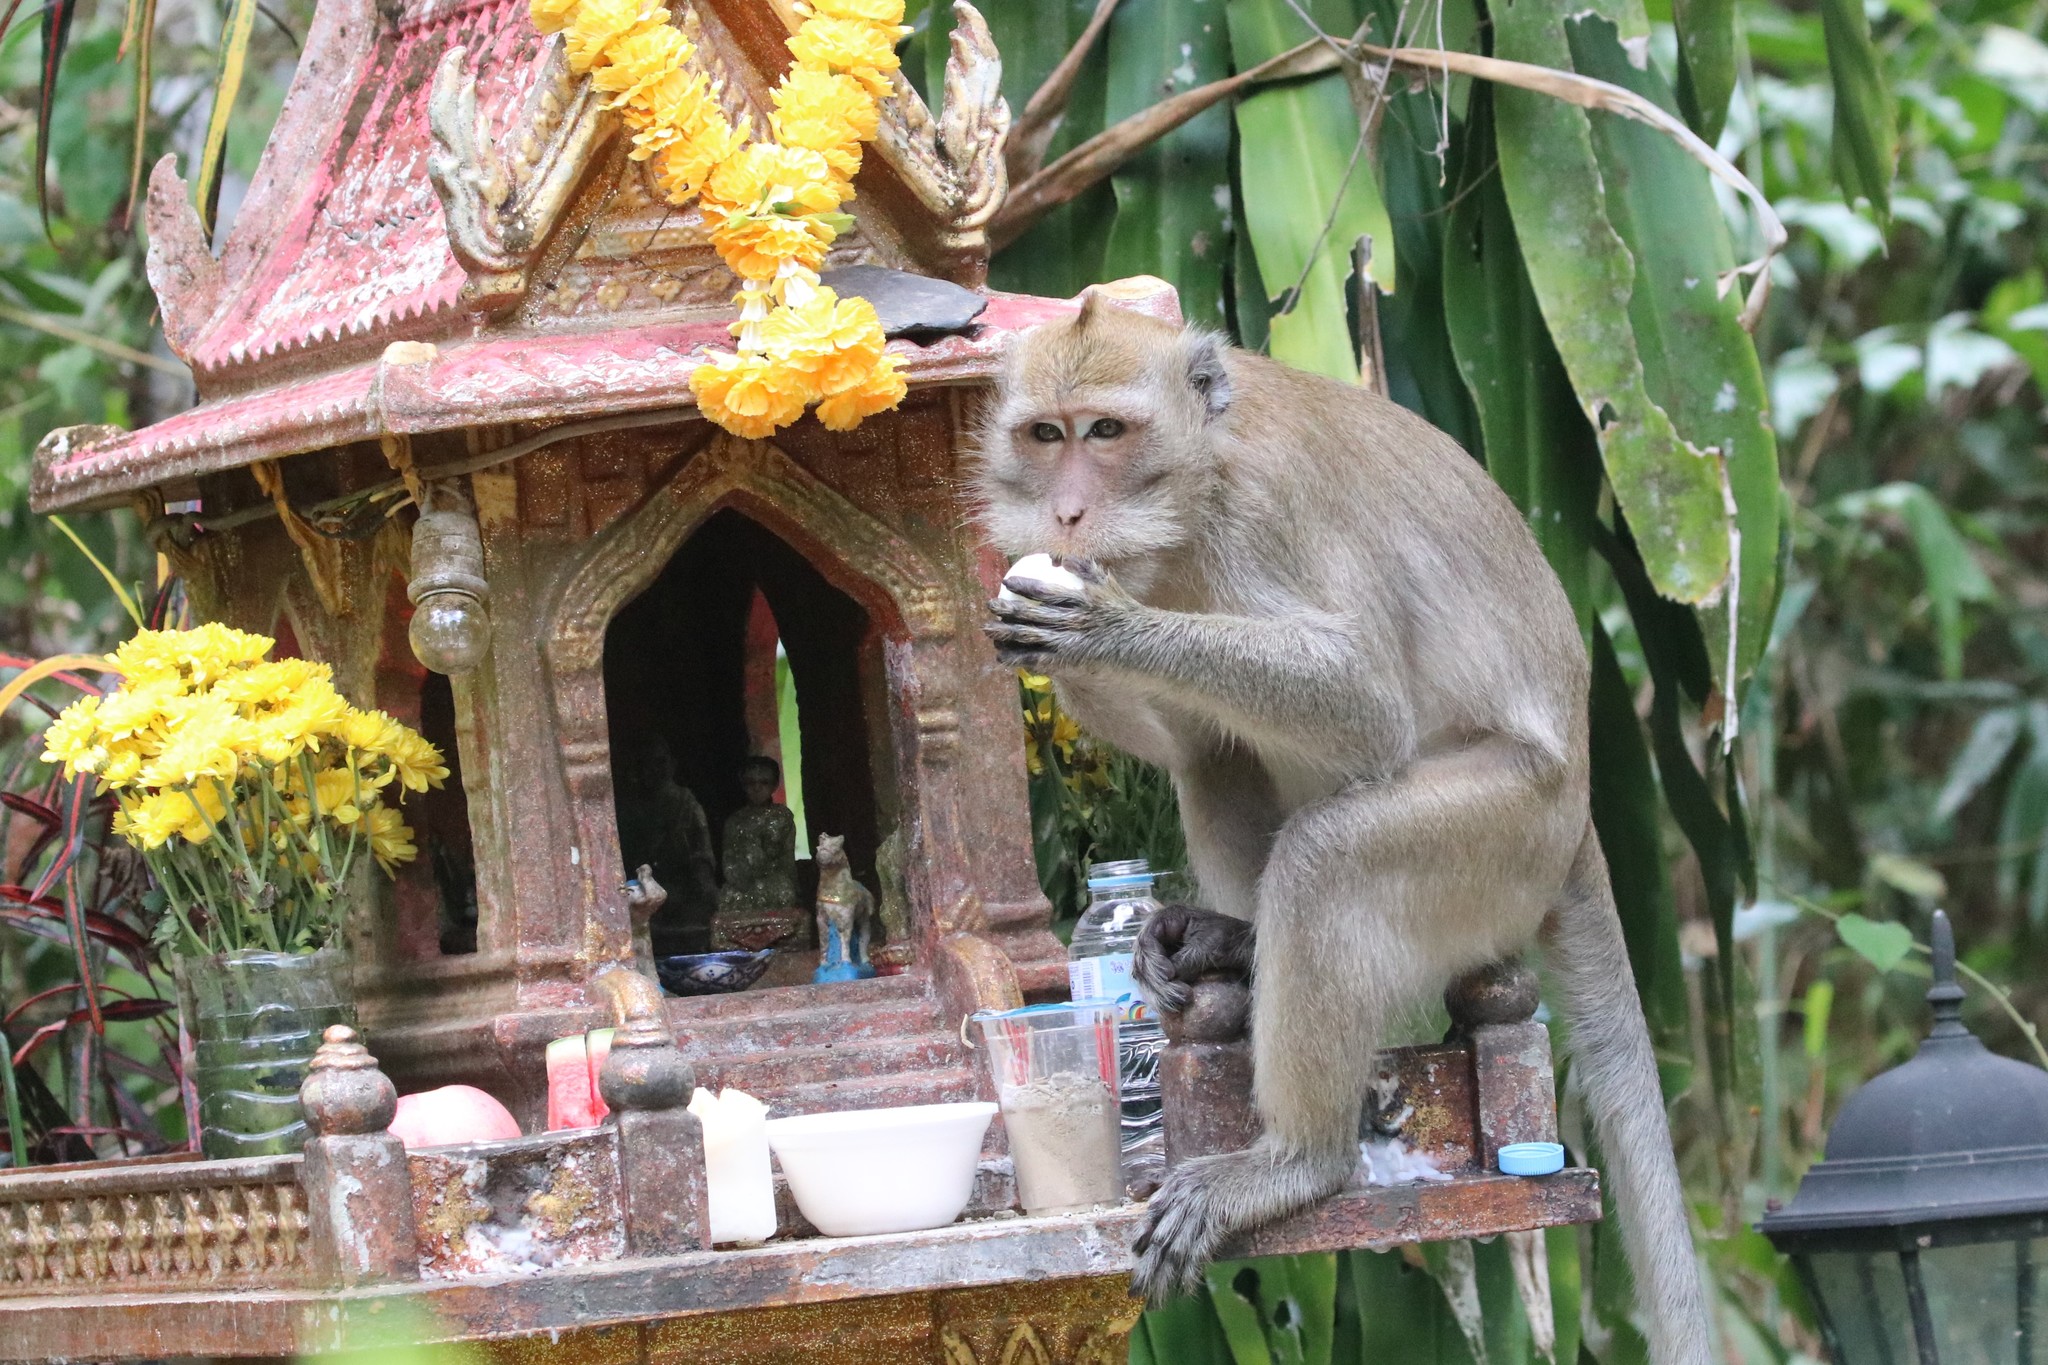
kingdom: Animalia
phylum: Chordata
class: Mammalia
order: Primates
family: Cercopithecidae
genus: Macaca
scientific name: Macaca fascicularis
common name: Crab-eating macaque
